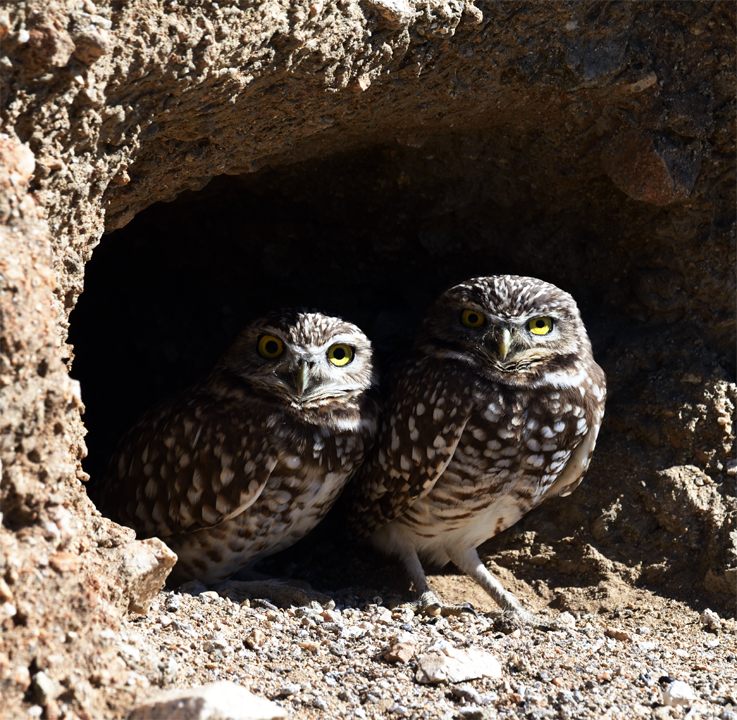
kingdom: Animalia
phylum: Chordata
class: Aves
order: Strigiformes
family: Strigidae
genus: Athene
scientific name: Athene cunicularia
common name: Burrowing owl
